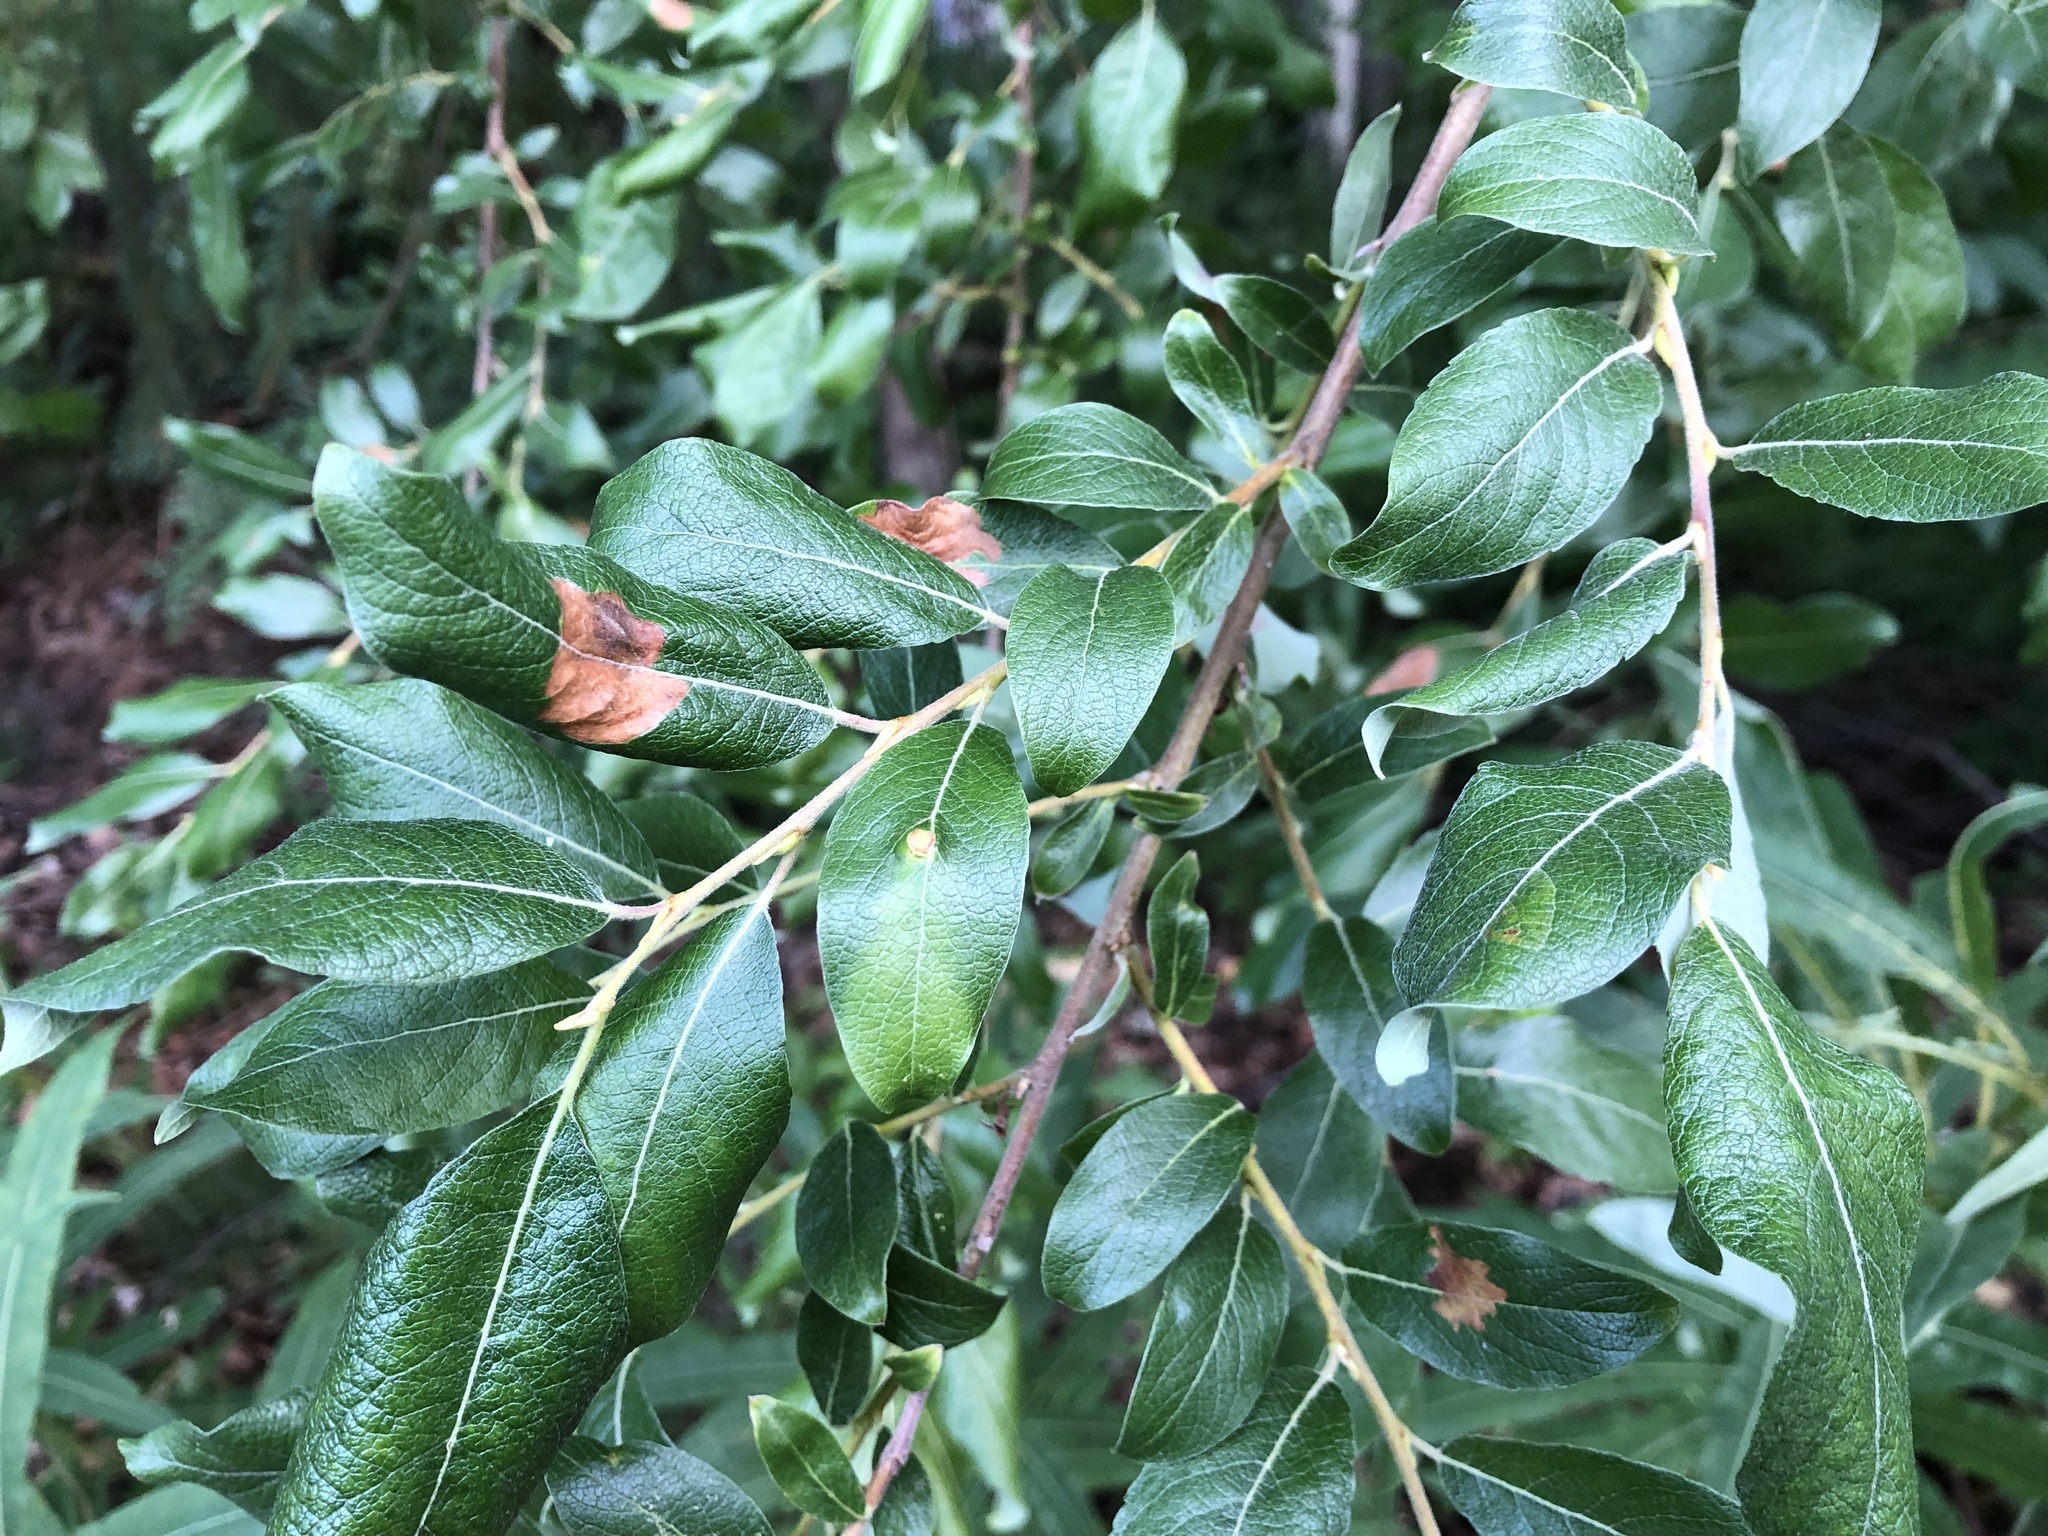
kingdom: Plantae
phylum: Tracheophyta
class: Magnoliopsida
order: Malpighiales
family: Salicaceae
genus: Salix
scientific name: Salix bebbiana
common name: Bebb's willow
